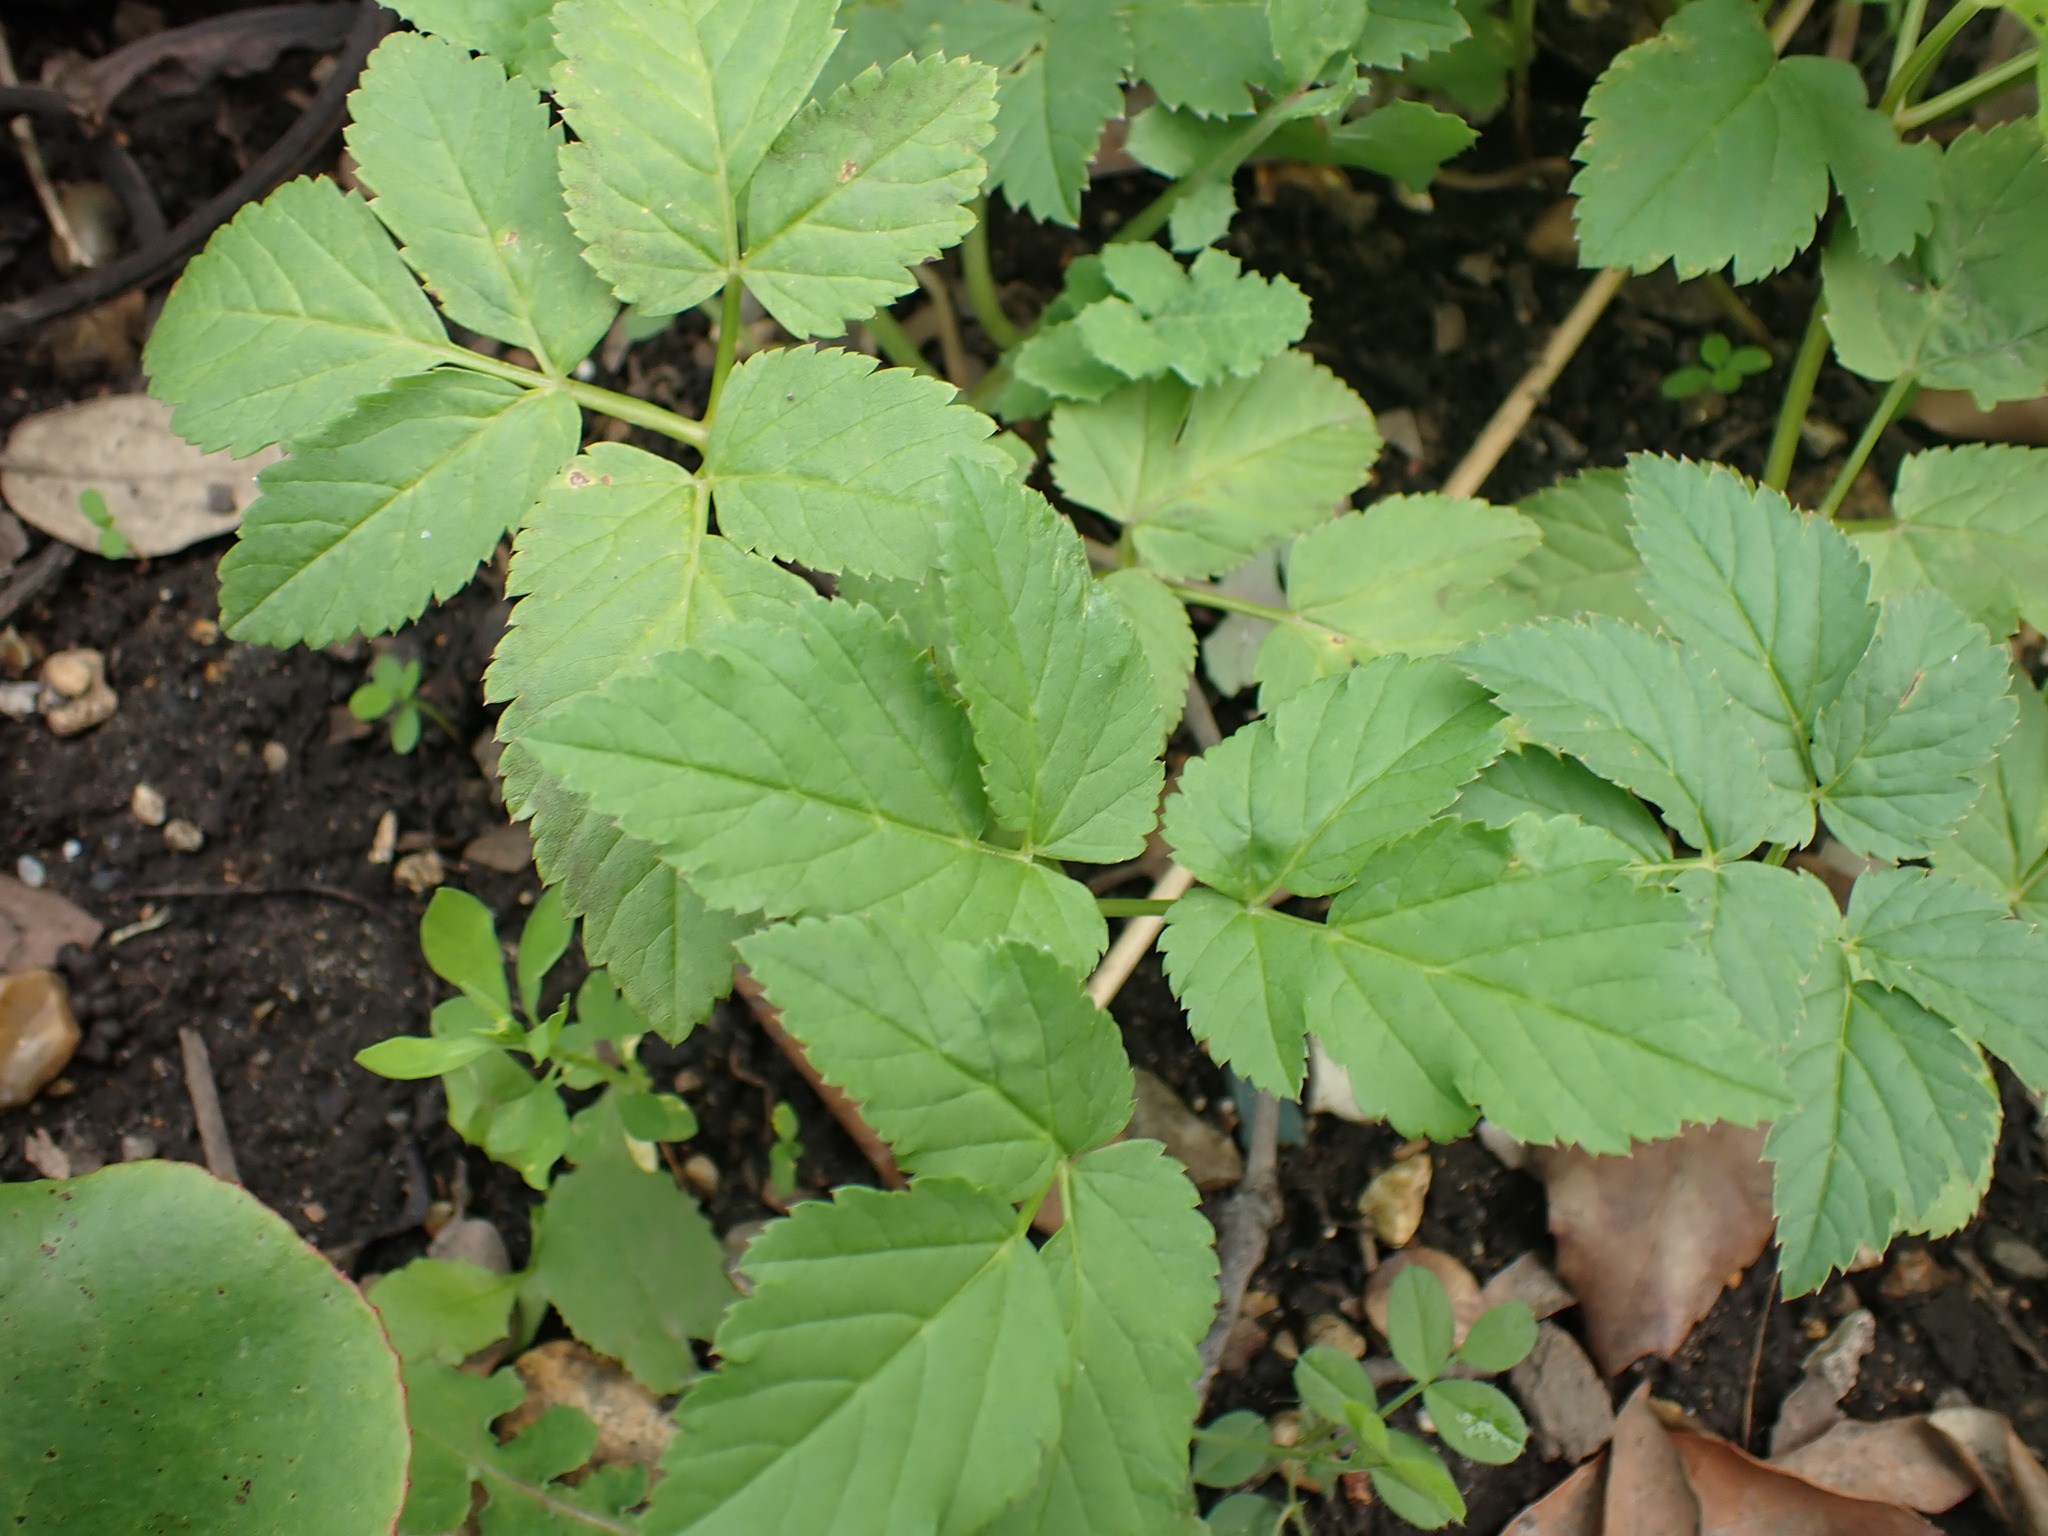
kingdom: Plantae
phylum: Tracheophyta
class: Magnoliopsida
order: Apiales
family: Apiaceae
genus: Aegopodium
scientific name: Aegopodium podagraria
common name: Ground-elder
